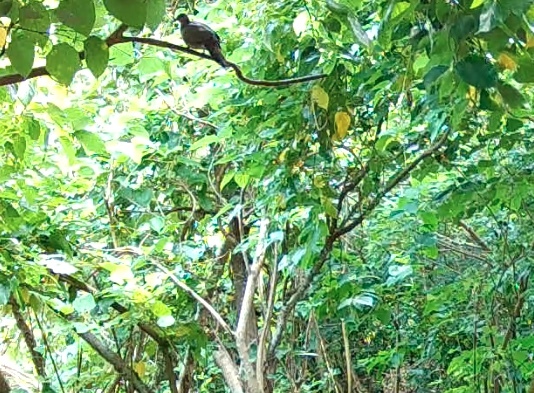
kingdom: Animalia
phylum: Chordata
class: Aves
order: Columbiformes
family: Columbidae
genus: Spilopelia
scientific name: Spilopelia chinensis
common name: Spotted dove
